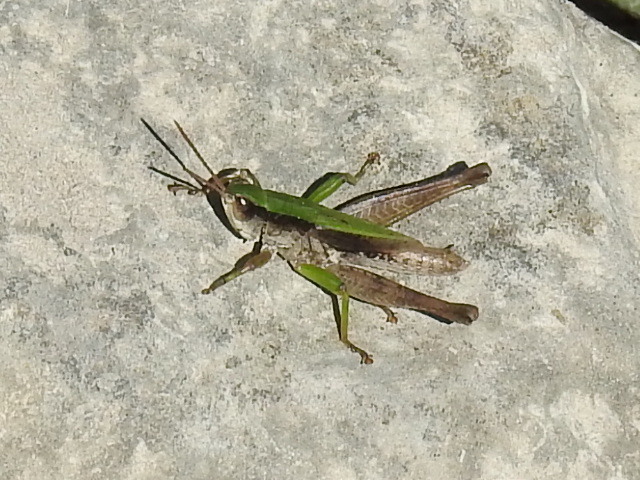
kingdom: Animalia
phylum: Arthropoda
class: Insecta
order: Orthoptera
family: Acrididae
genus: Dichromorpha
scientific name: Dichromorpha viridis
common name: Short-winged green grasshopper
